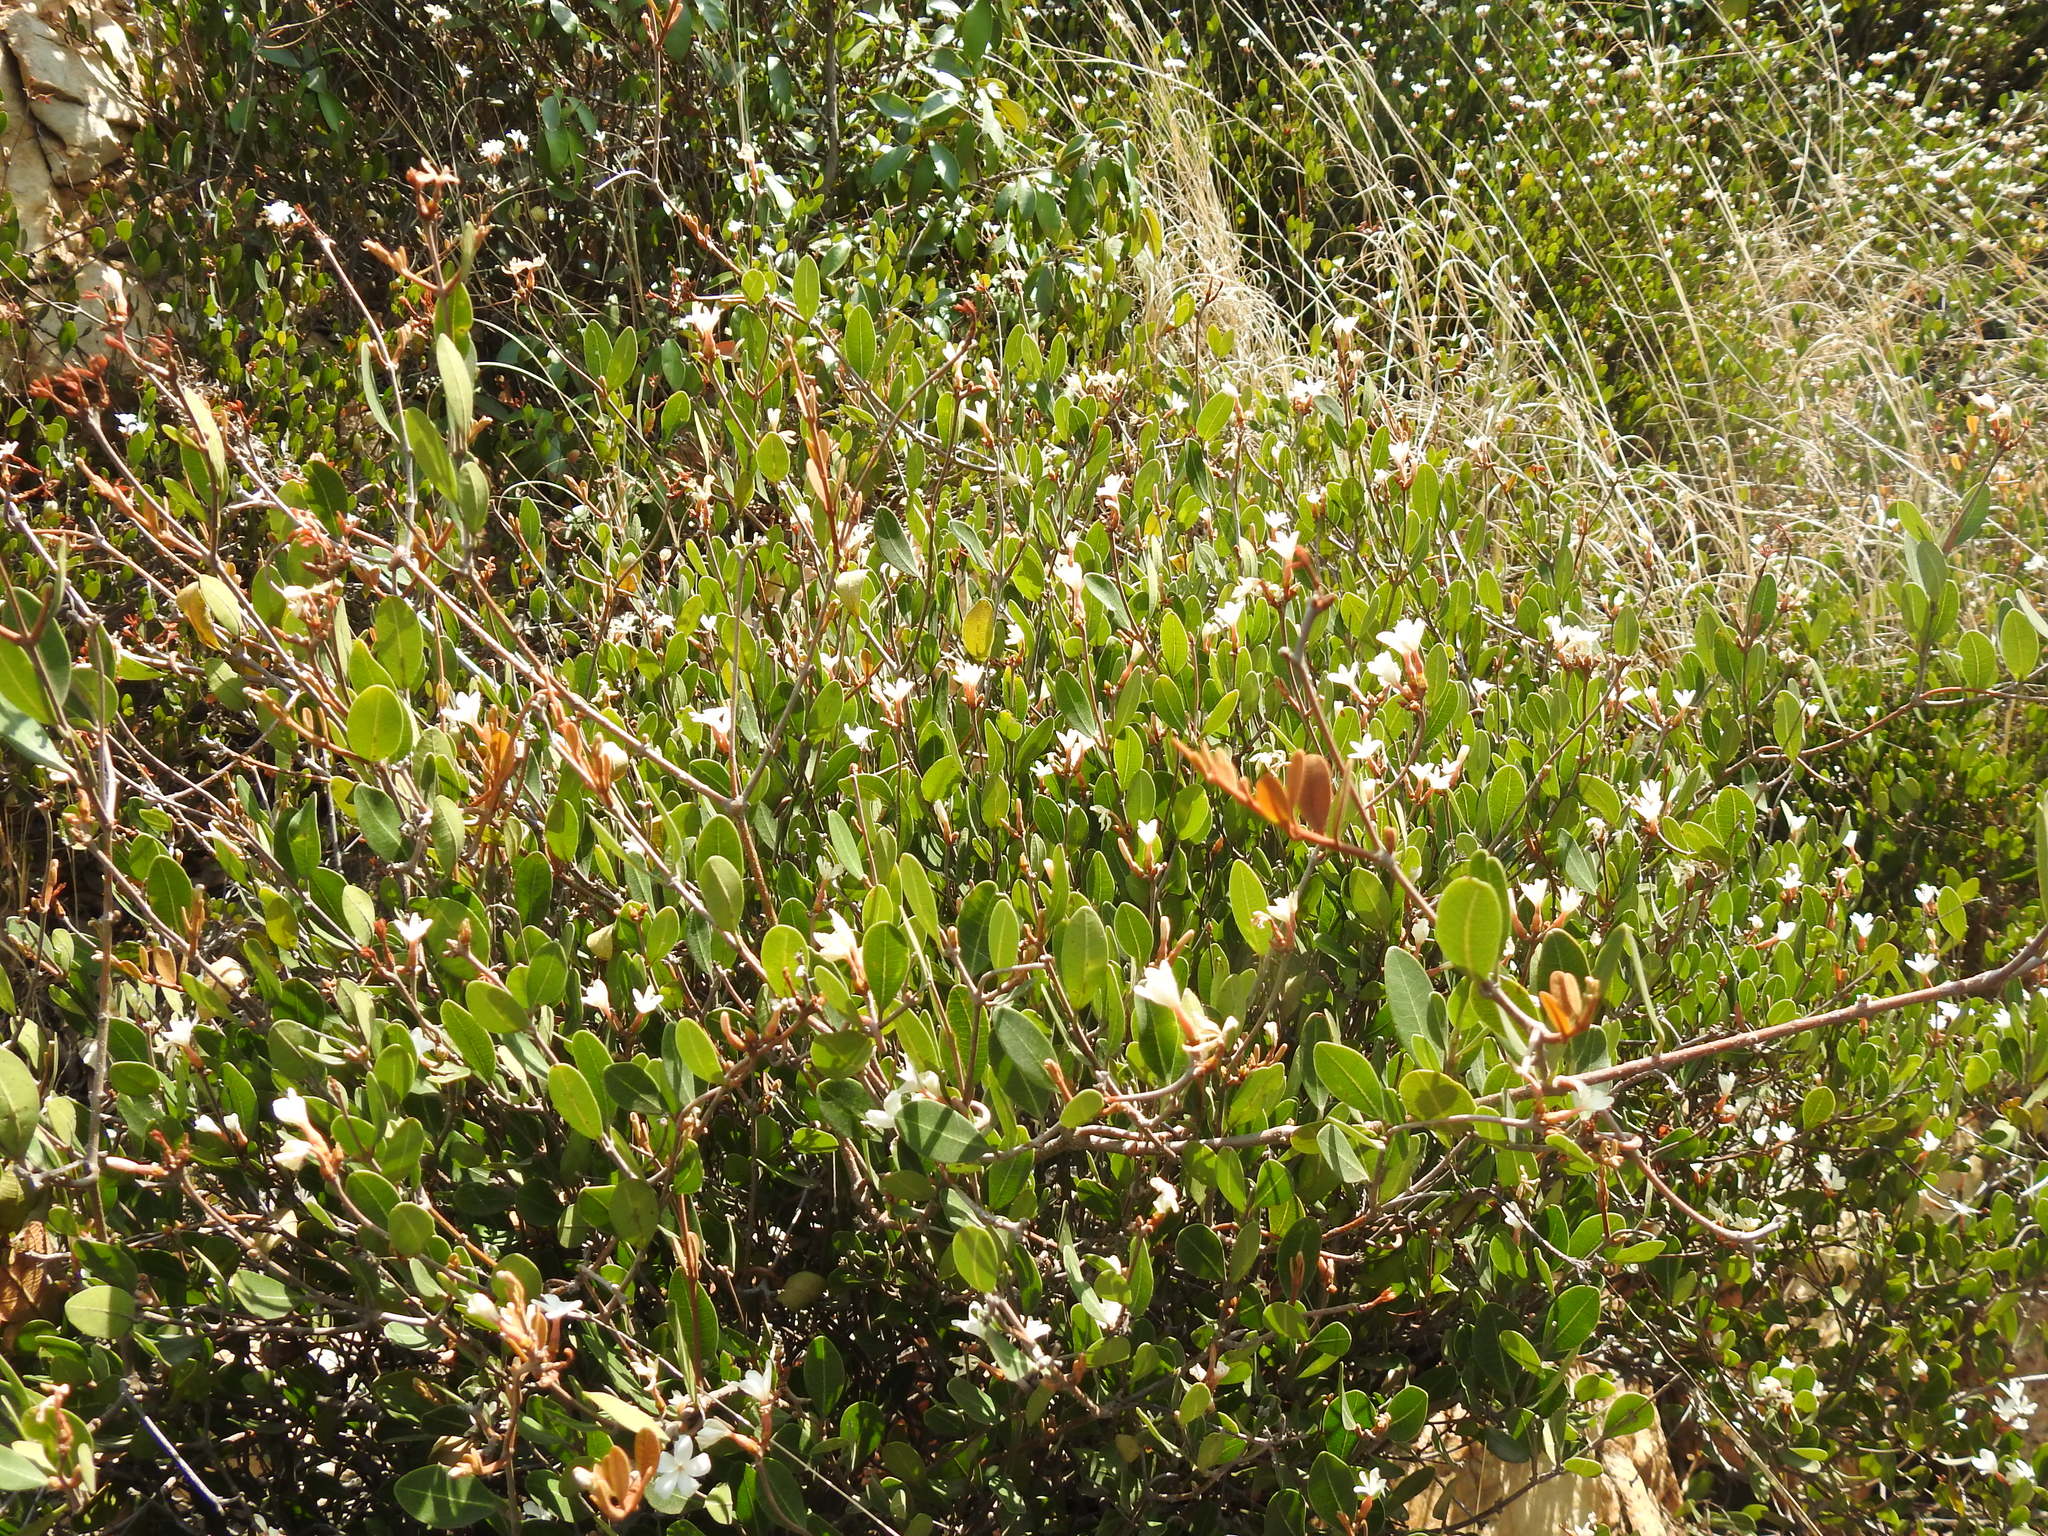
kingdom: Plantae
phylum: Tracheophyta
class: Magnoliopsida
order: Gentianales
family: Apocynaceae
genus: Ancylobothrys
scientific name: Ancylobothrys capensis
